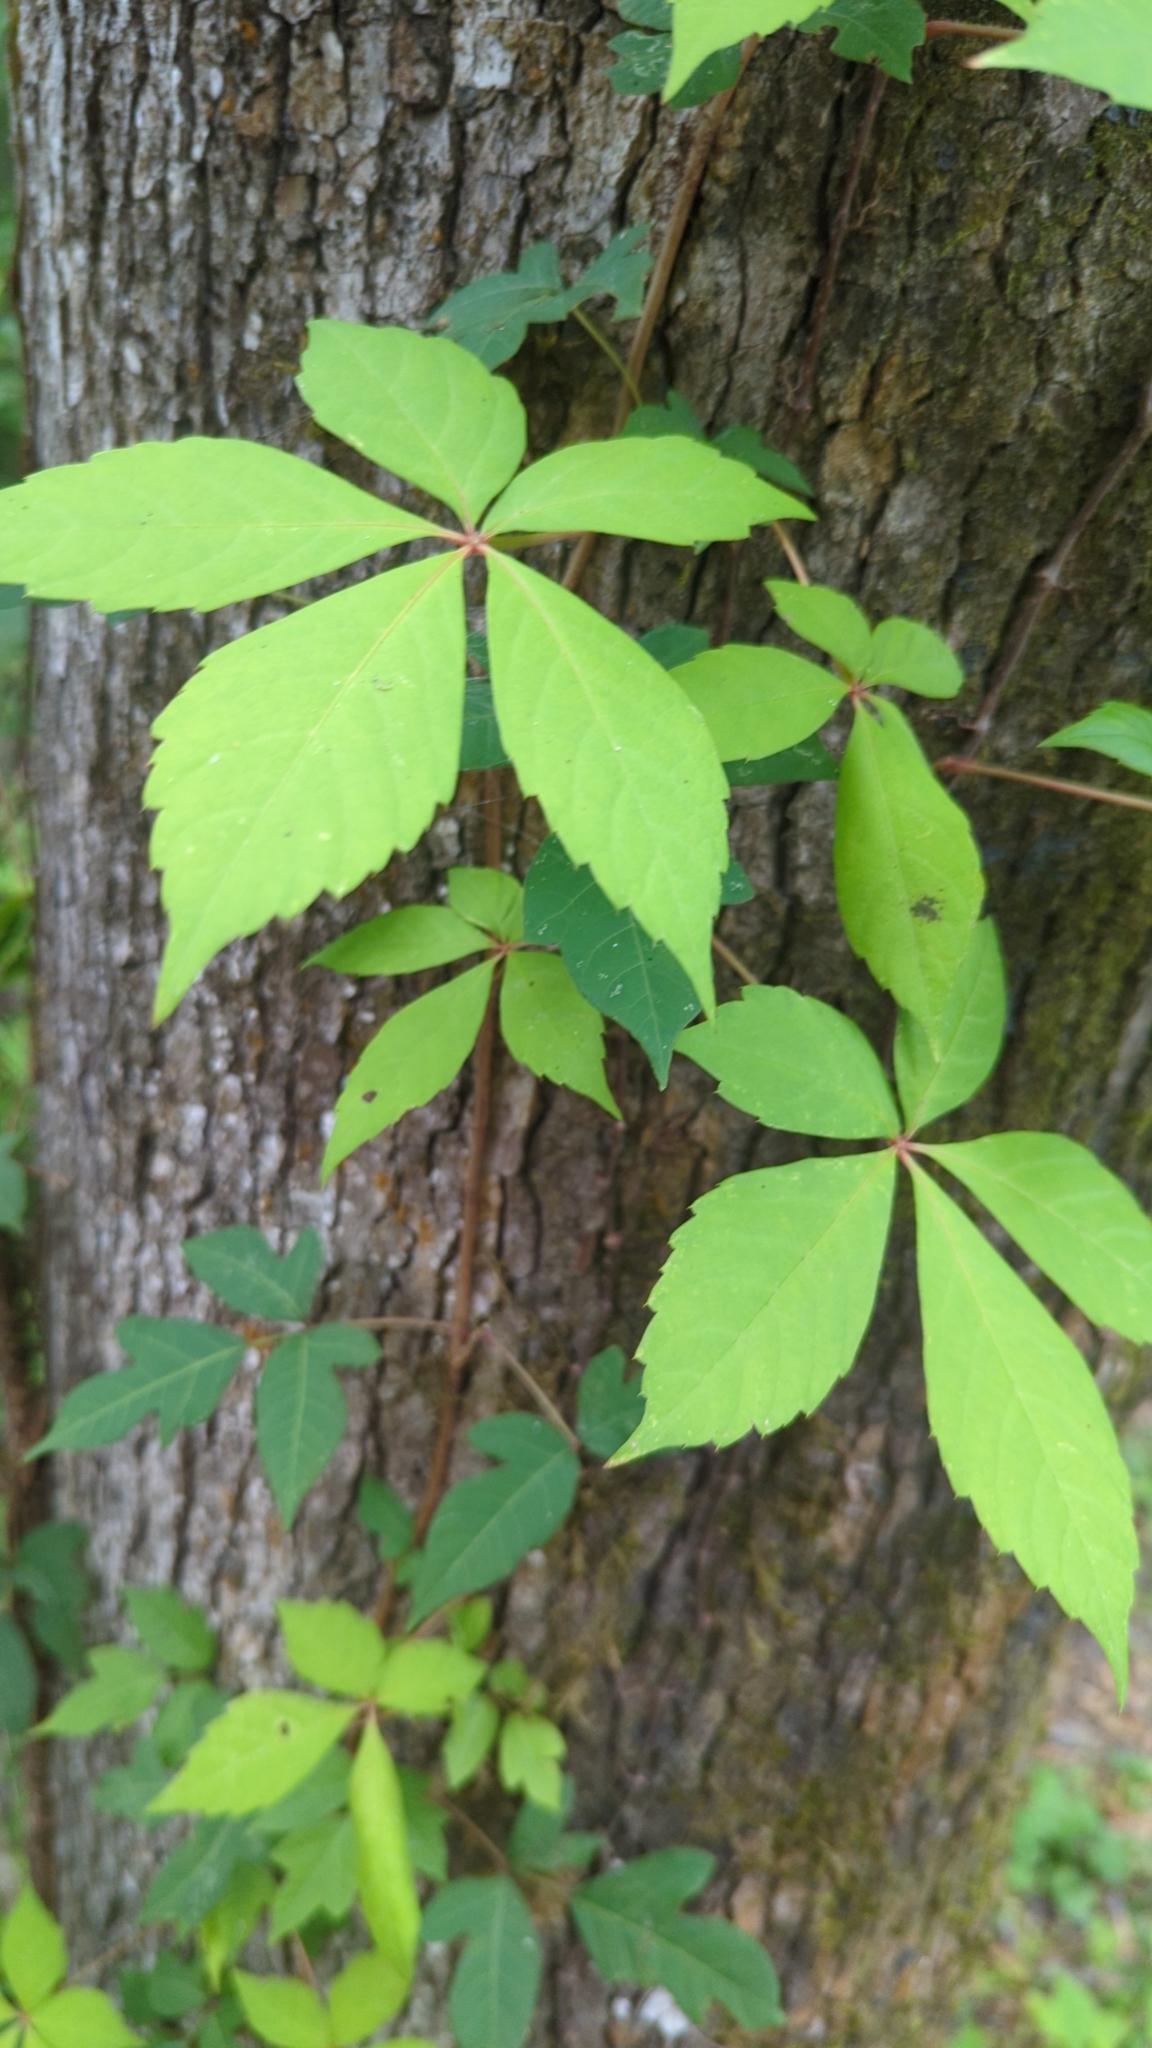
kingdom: Plantae
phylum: Tracheophyta
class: Magnoliopsida
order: Vitales
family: Vitaceae
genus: Parthenocissus
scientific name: Parthenocissus quinquefolia
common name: Virginia-creeper
